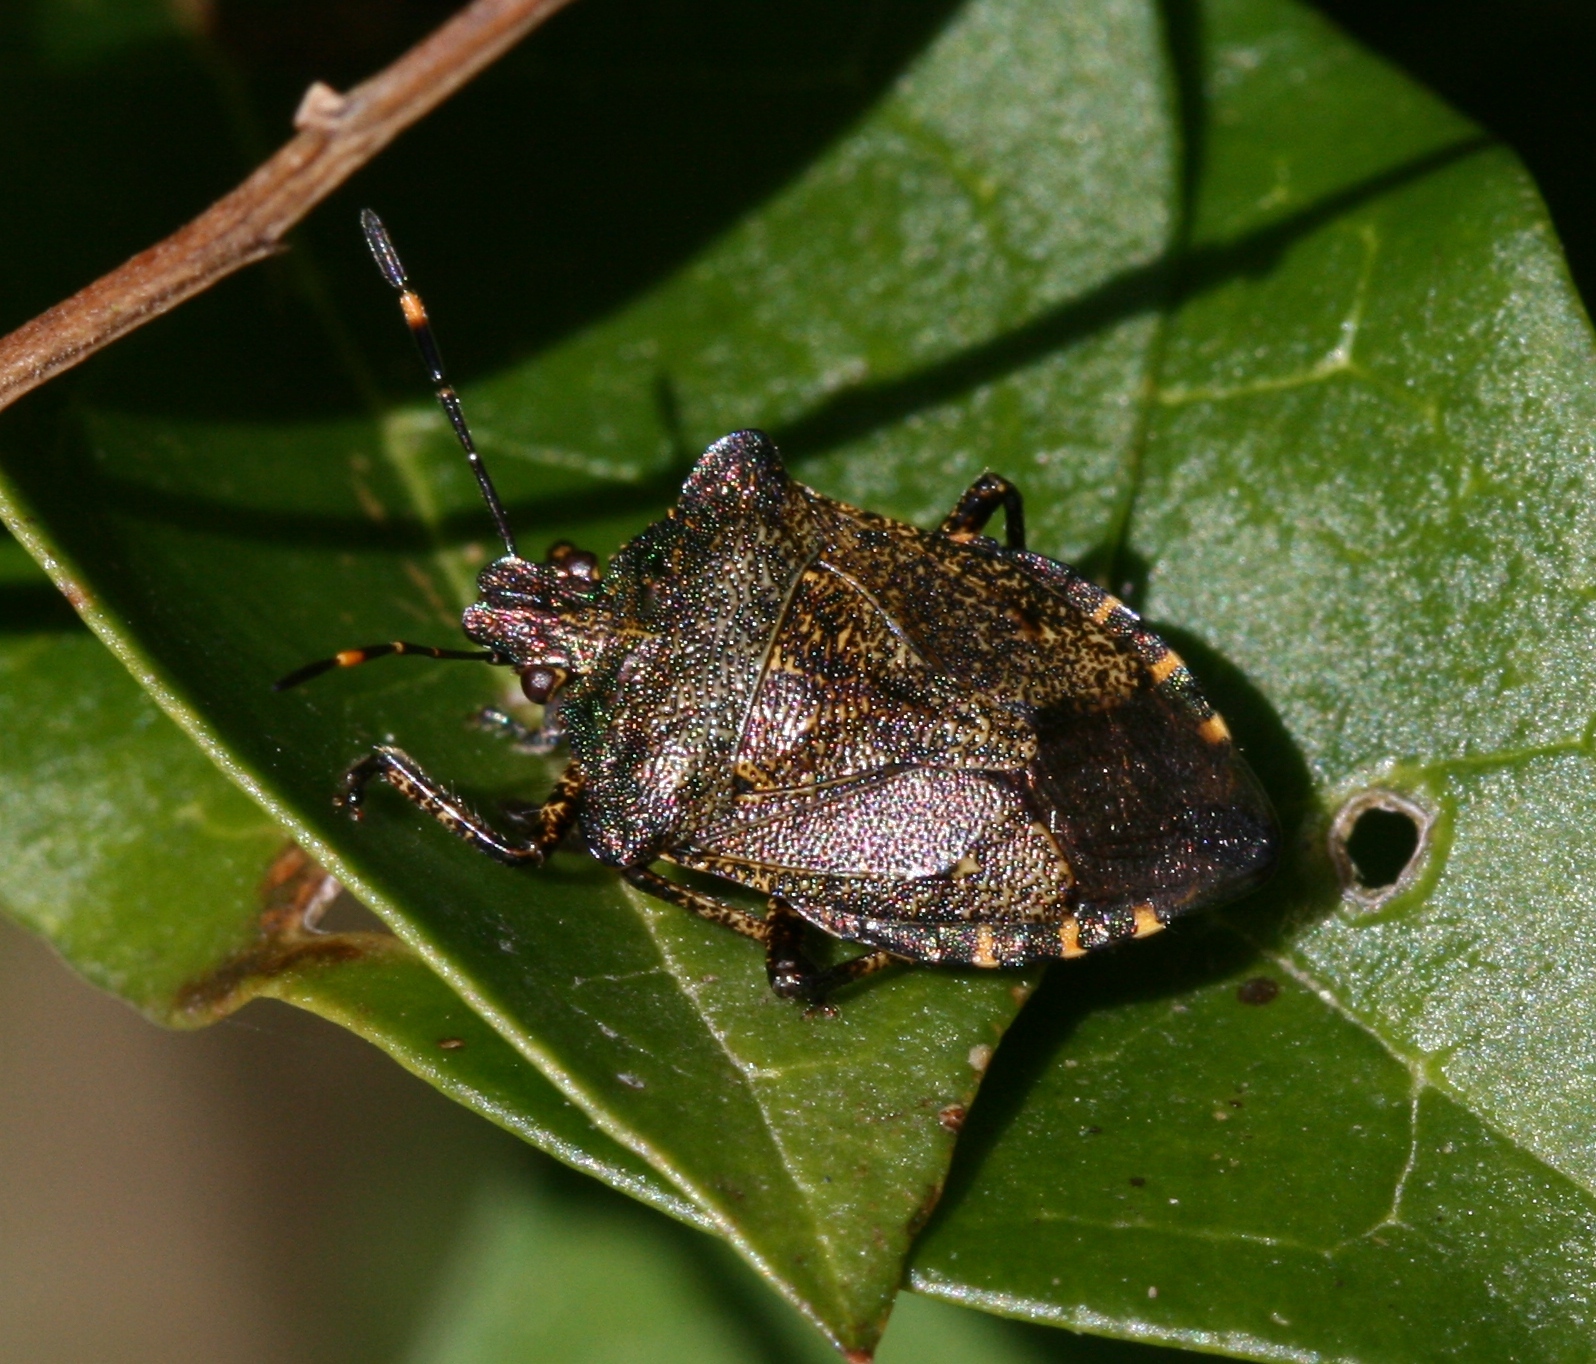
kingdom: Animalia
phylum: Arthropoda
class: Insecta
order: Hemiptera
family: Pentatomidae
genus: Troilus
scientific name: Troilus luridus
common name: Bronze shieldbug
